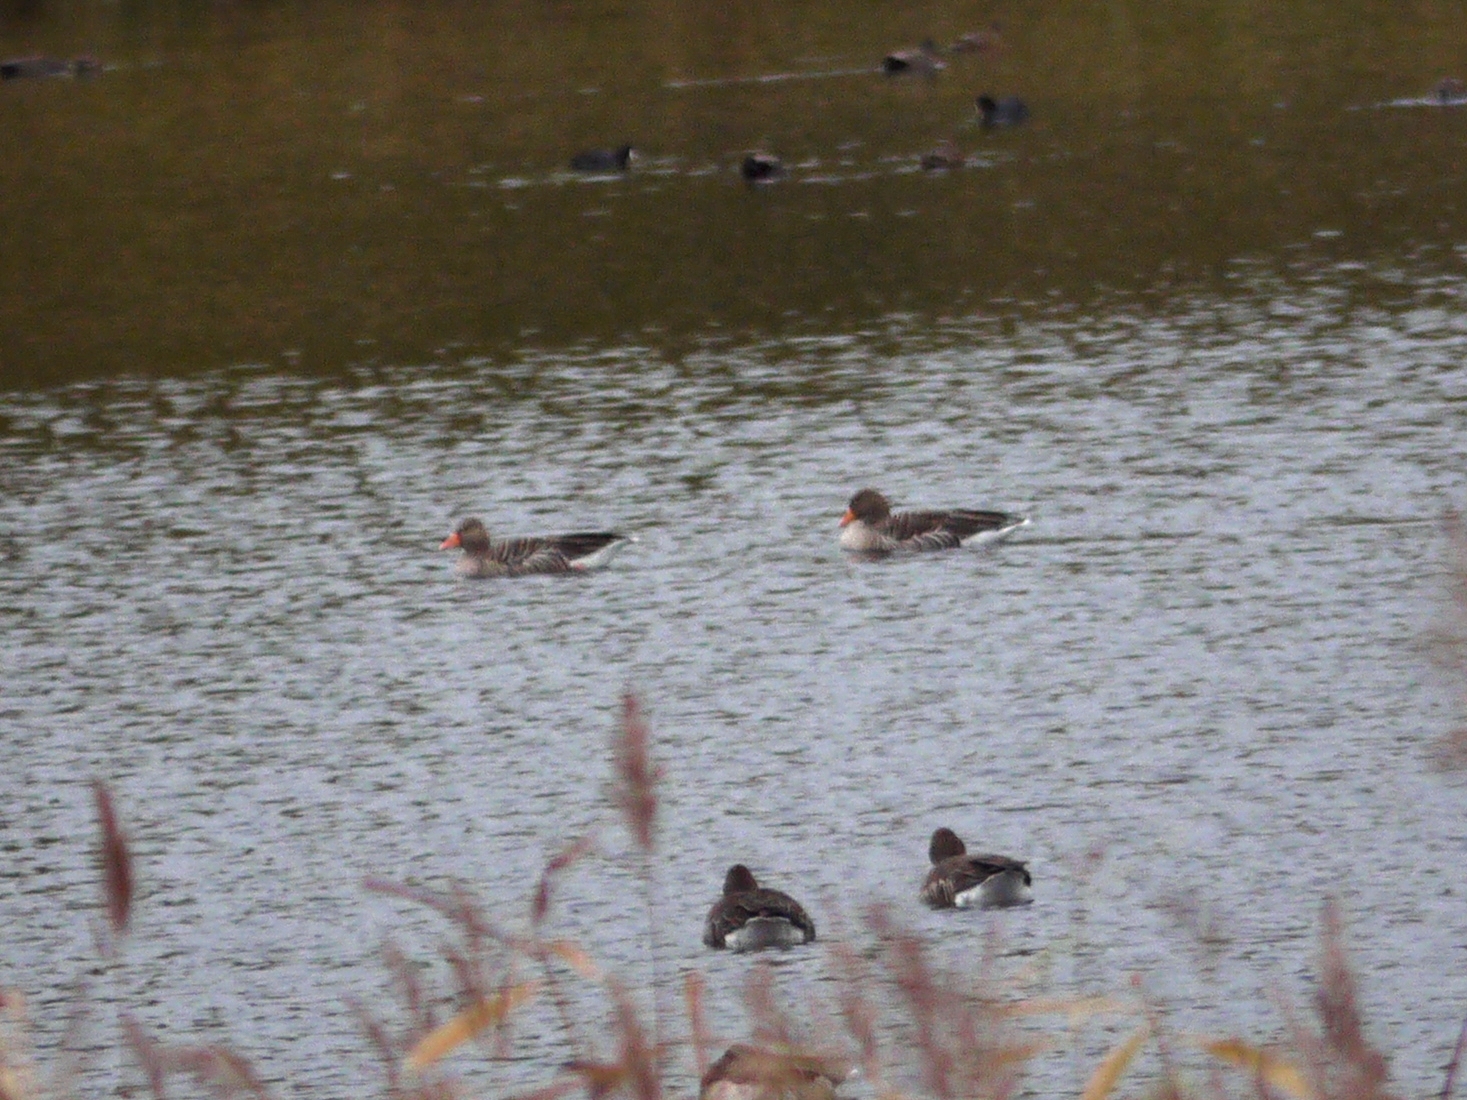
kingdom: Animalia
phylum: Chordata
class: Aves
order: Anseriformes
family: Anatidae
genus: Anser
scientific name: Anser anser
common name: Greylag goose
